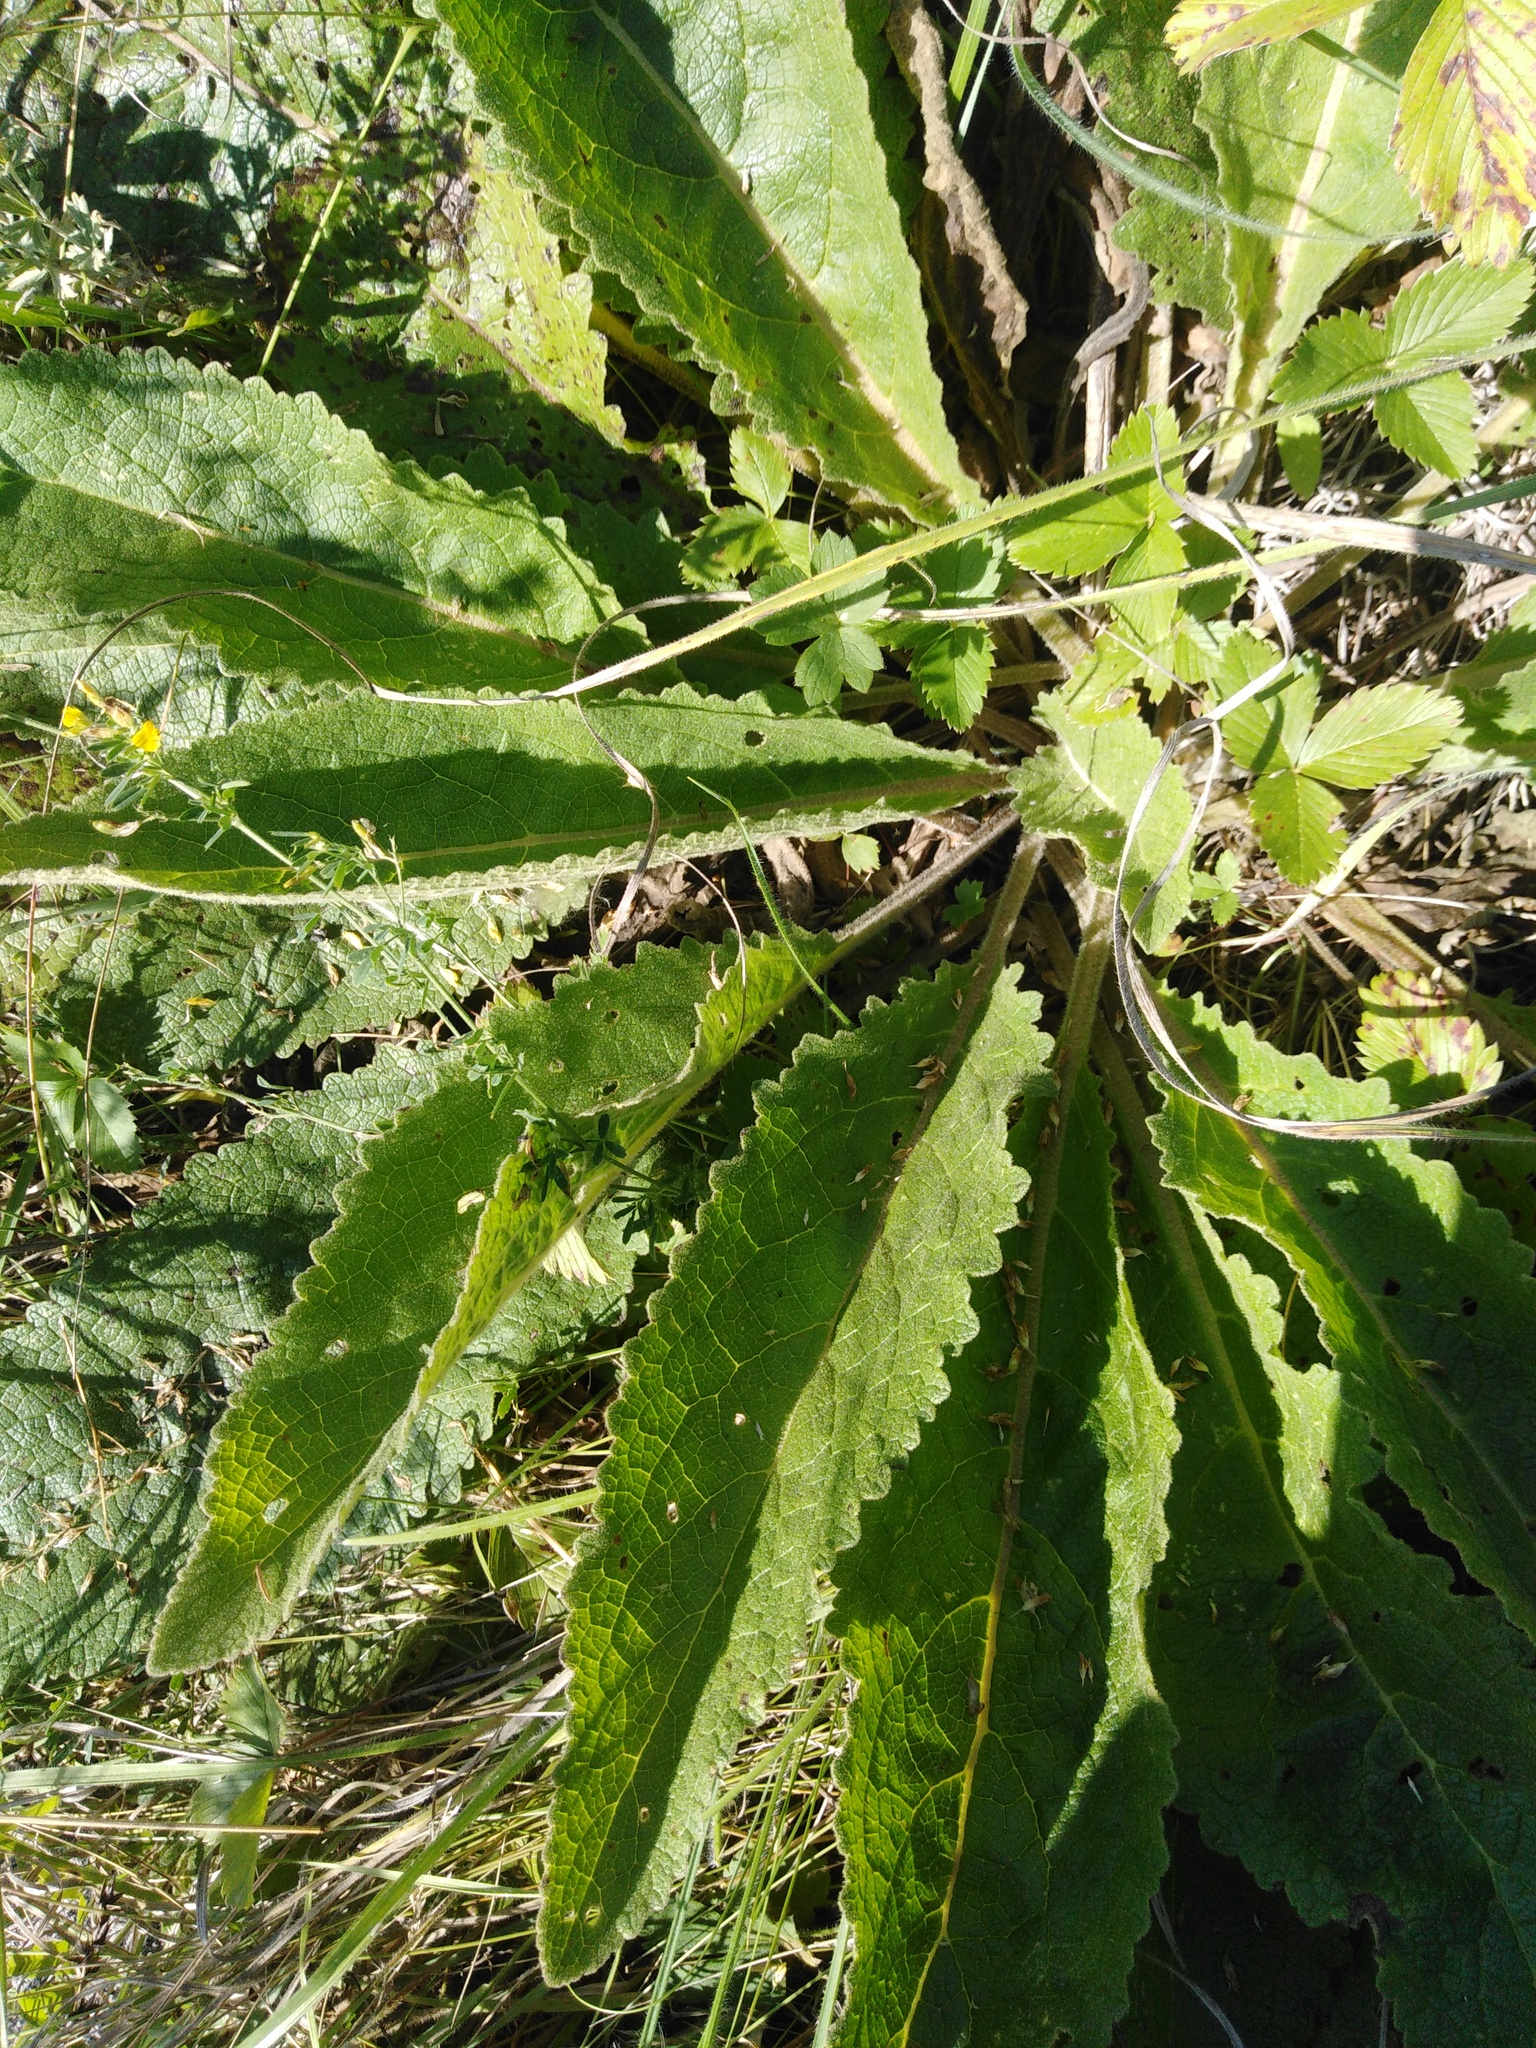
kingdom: Plantae
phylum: Tracheophyta
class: Magnoliopsida
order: Lamiales
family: Scrophulariaceae
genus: Verbascum
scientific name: Verbascum chaixii
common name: Nettle-leaved mullein
